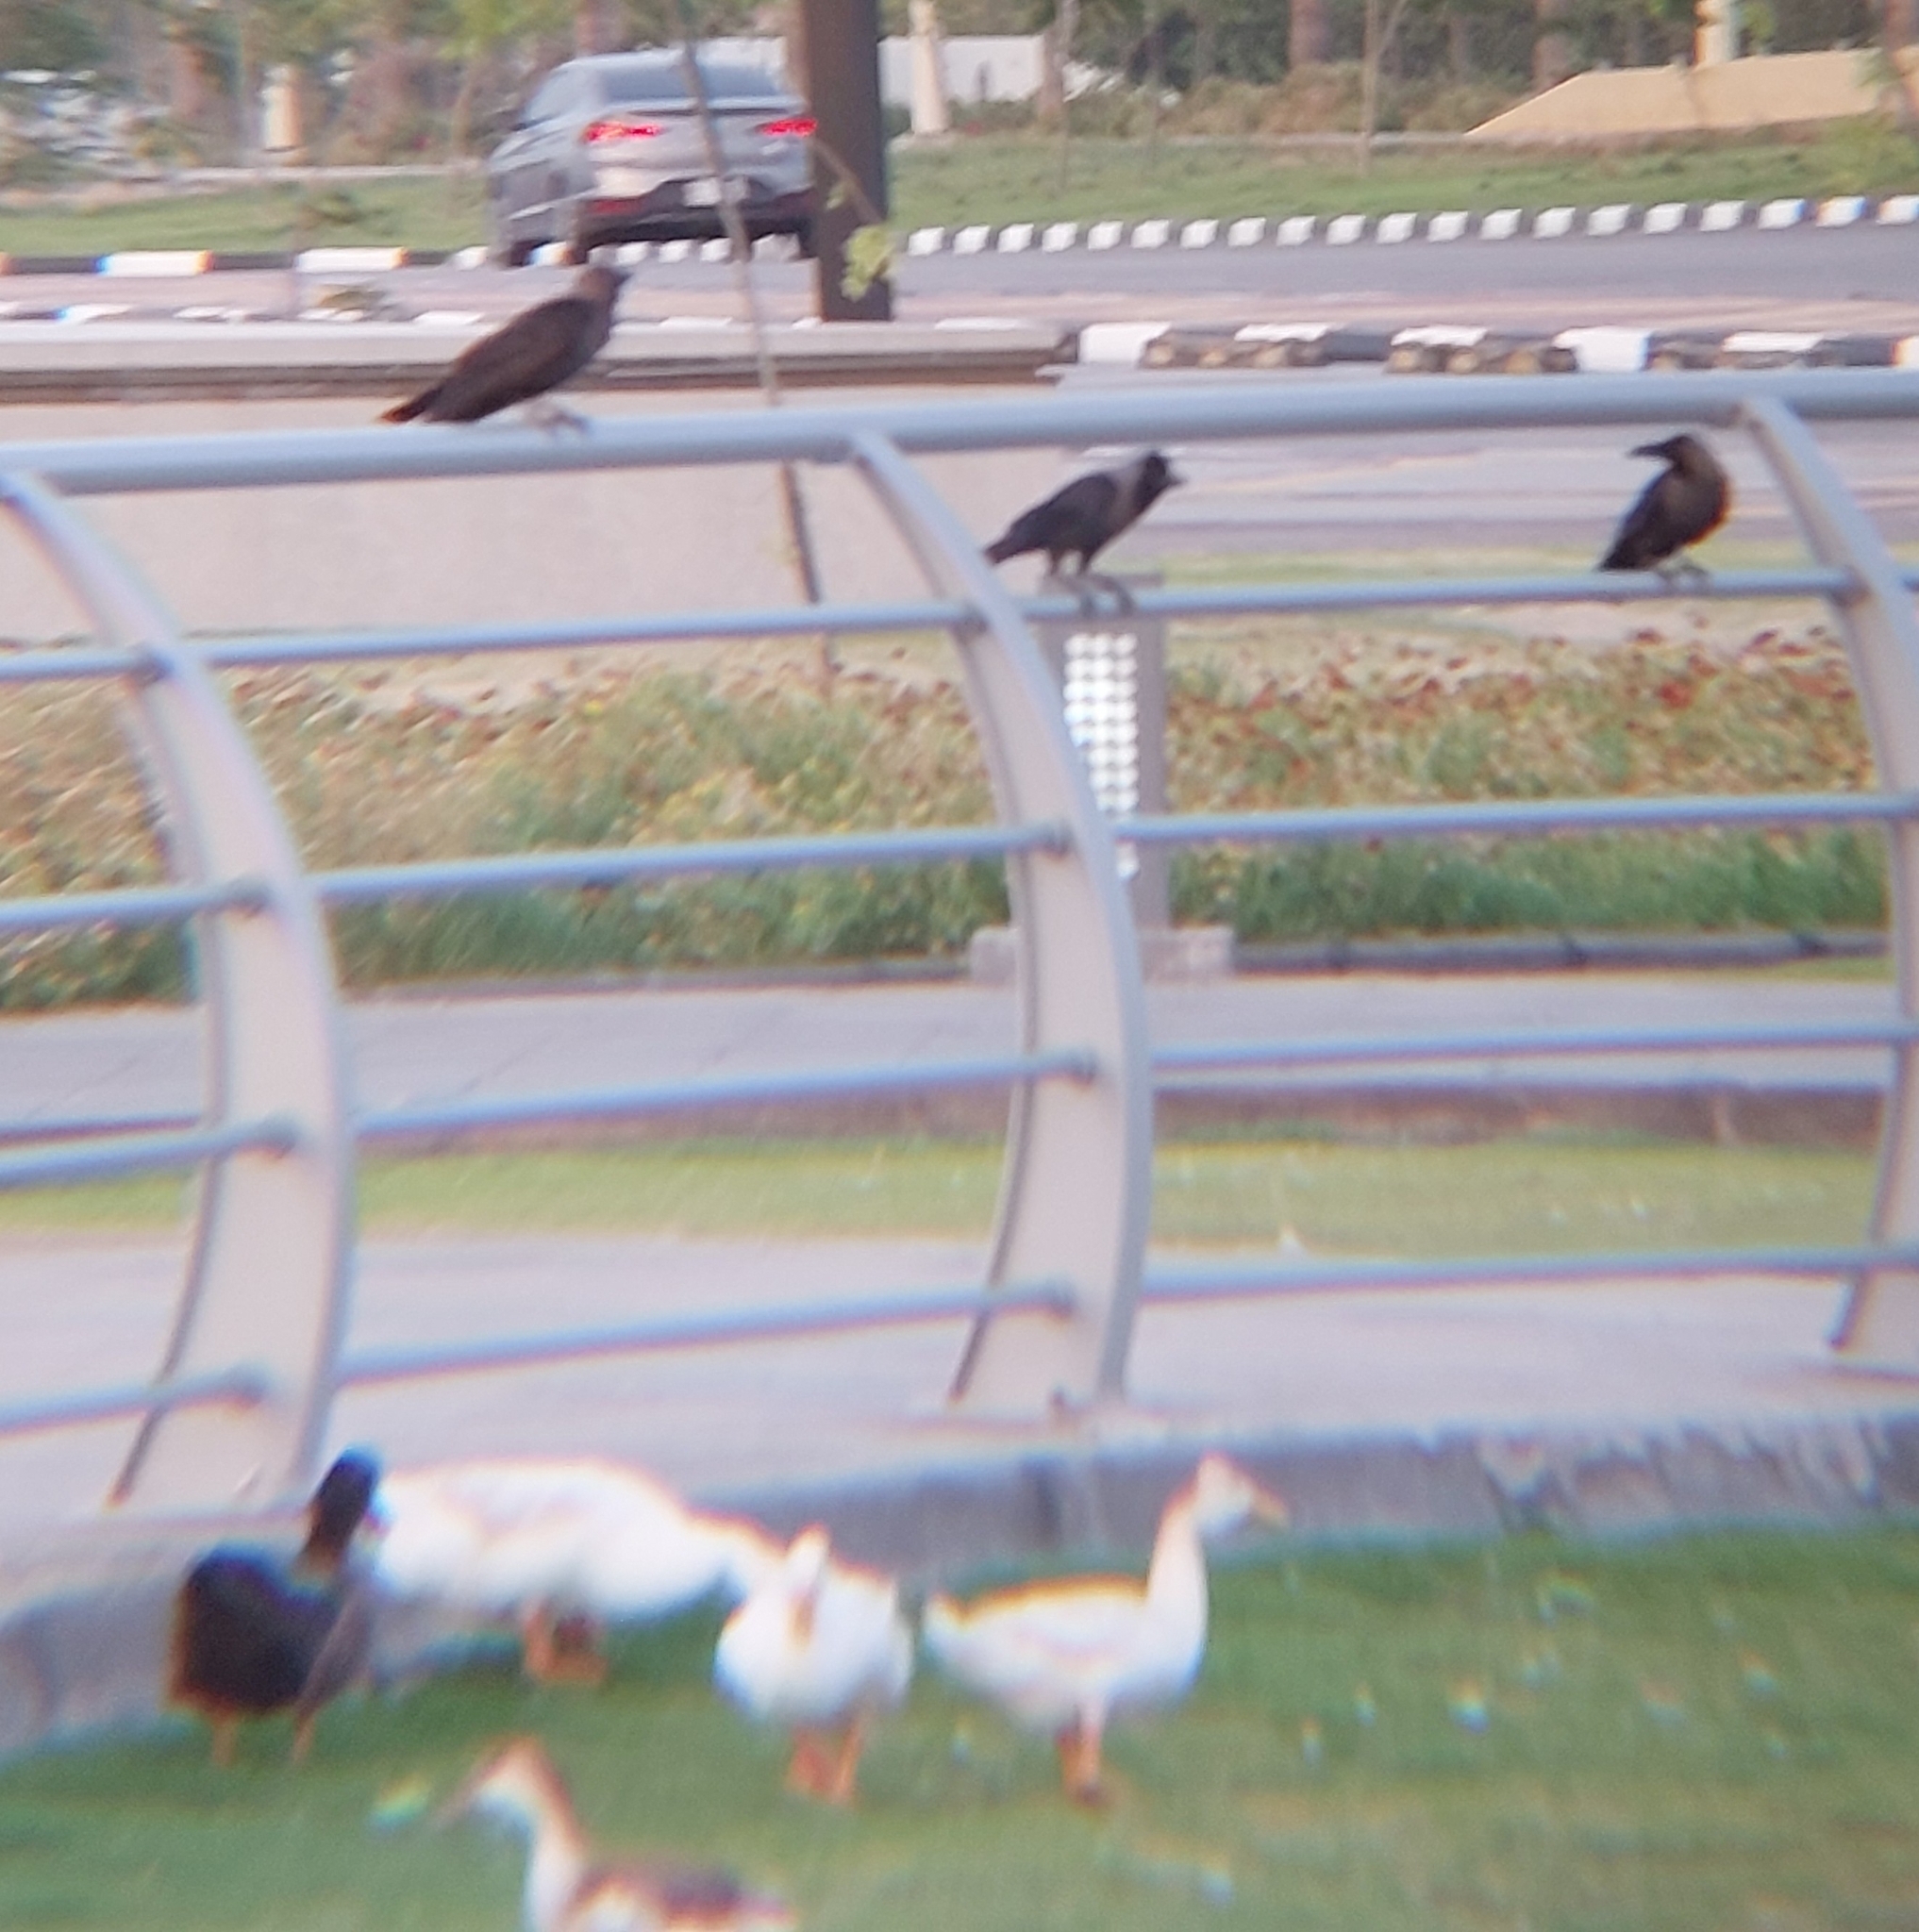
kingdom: Animalia
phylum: Chordata
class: Aves
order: Passeriformes
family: Corvidae
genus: Corvus
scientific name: Corvus splendens
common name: House crow
